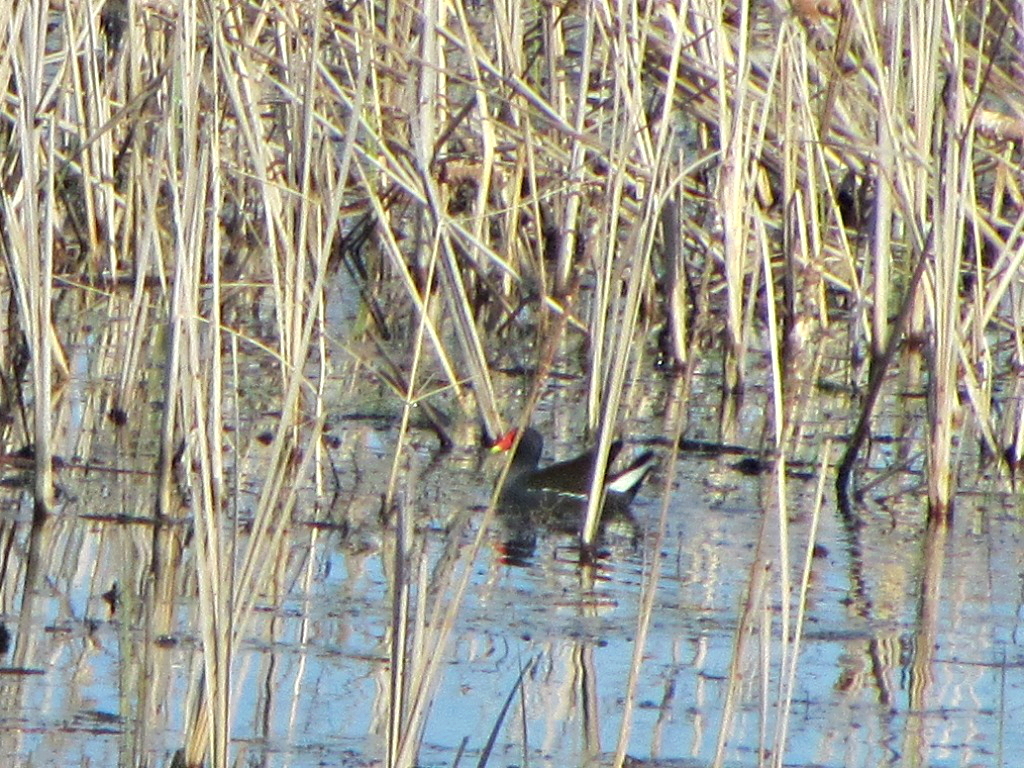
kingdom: Animalia
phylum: Chordata
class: Aves
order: Gruiformes
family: Rallidae
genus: Gallinula
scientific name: Gallinula chloropus
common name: Common moorhen
